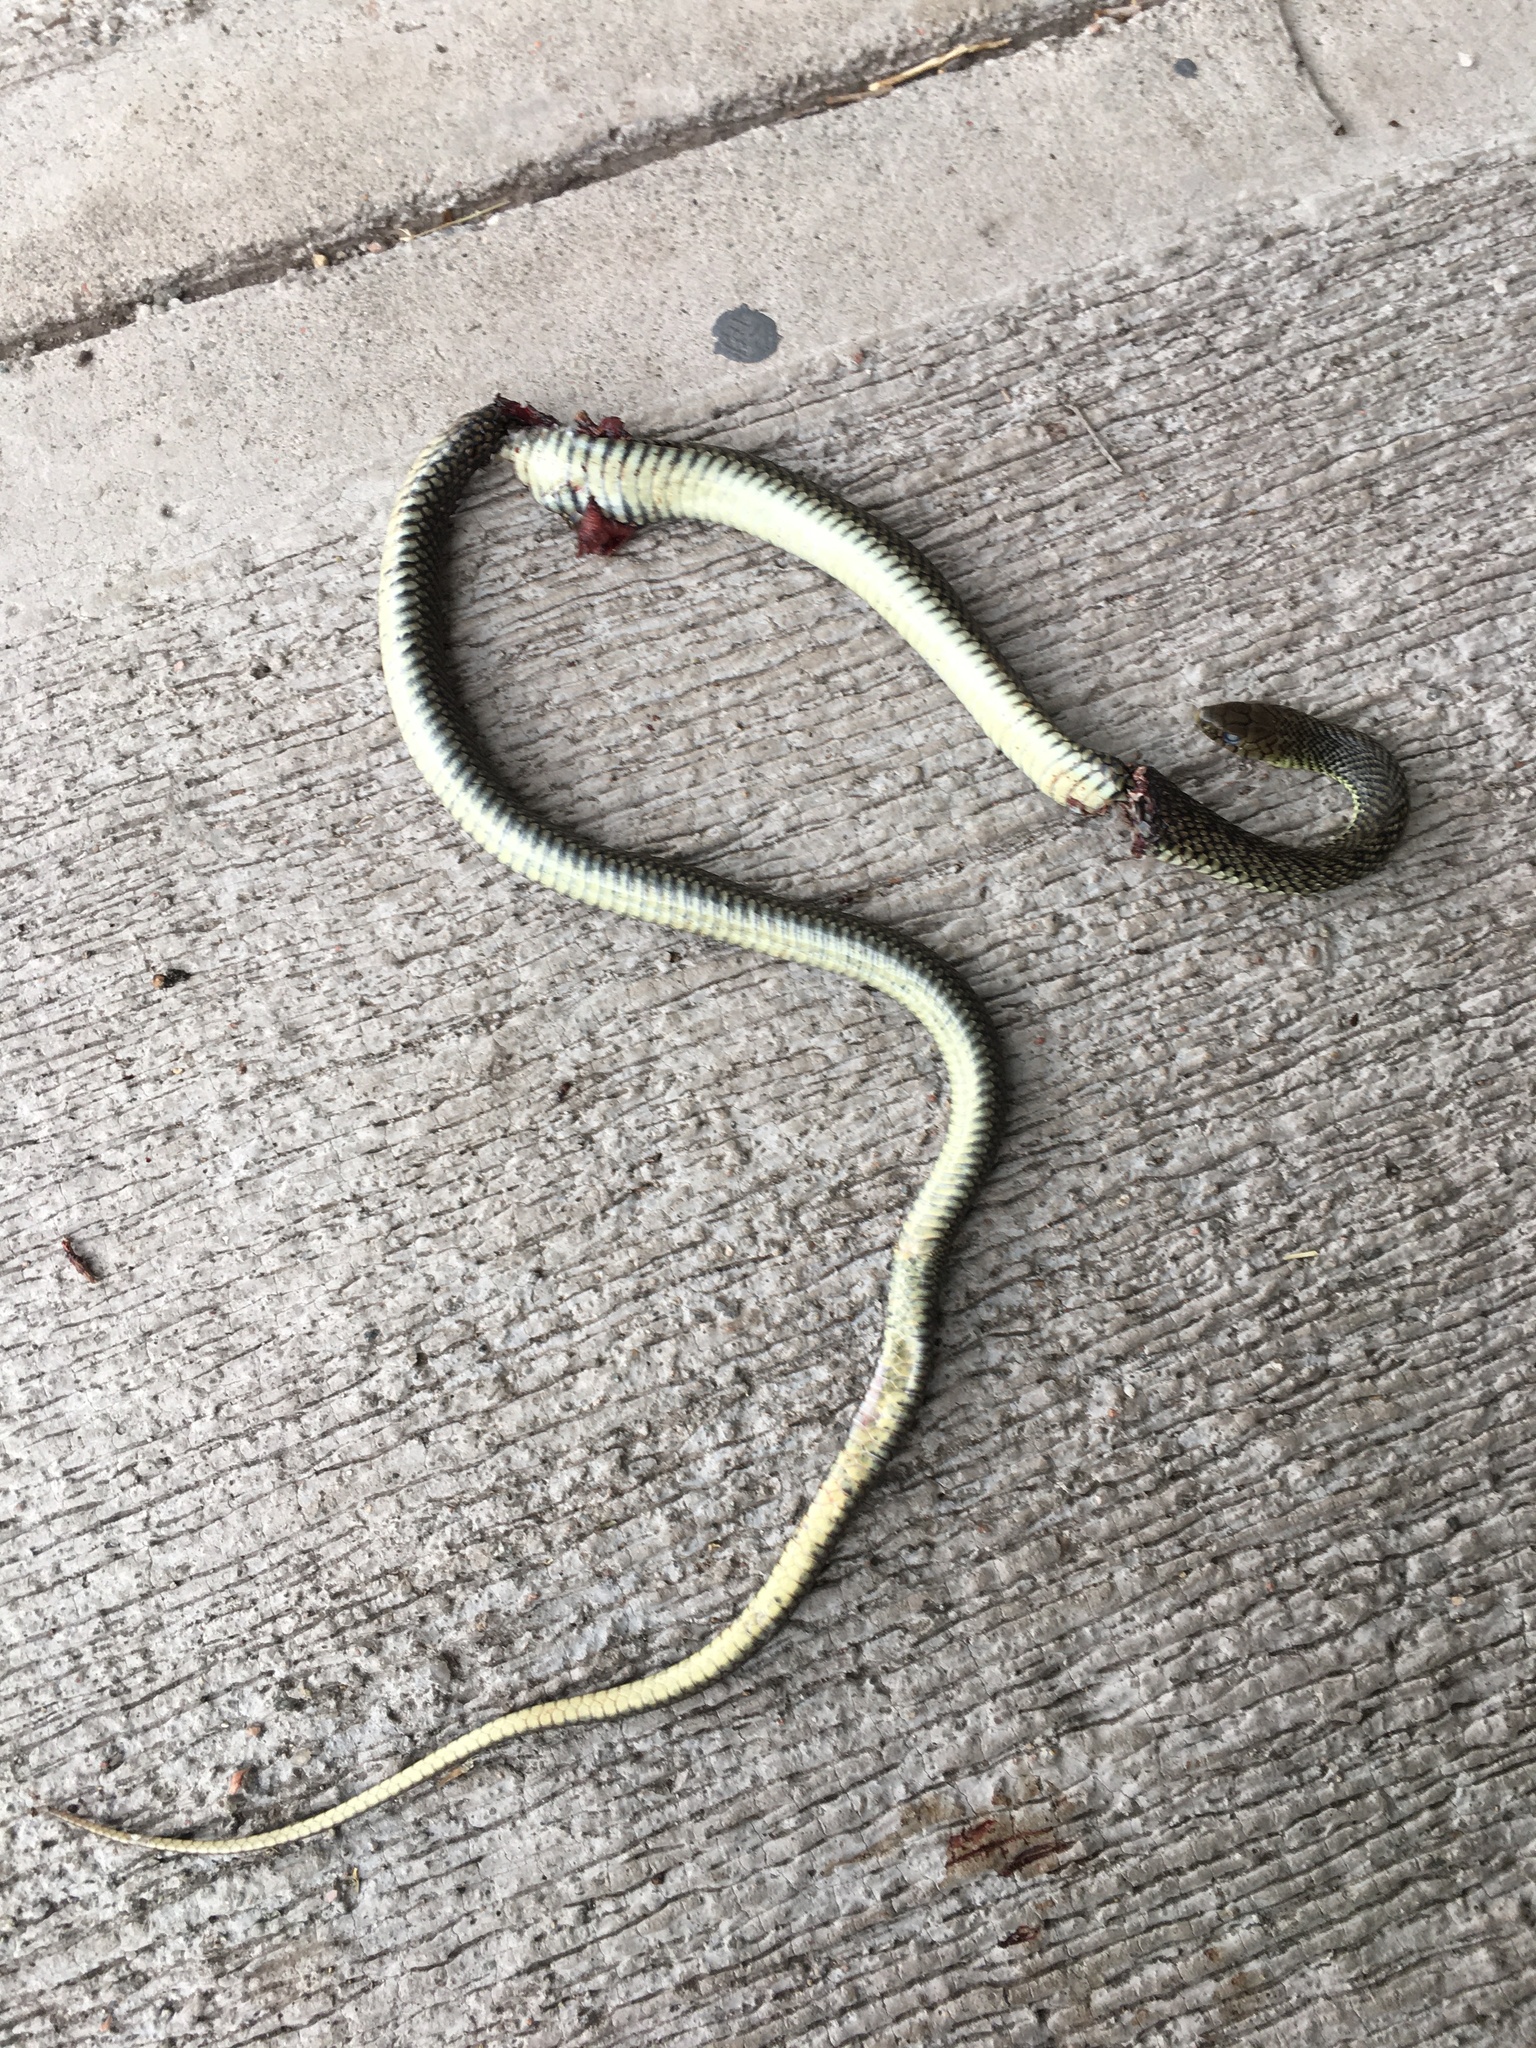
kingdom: Animalia
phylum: Chordata
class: Squamata
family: Colubridae
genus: Philodryas
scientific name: Philodryas patagoniensis
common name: Patagonia green racer
